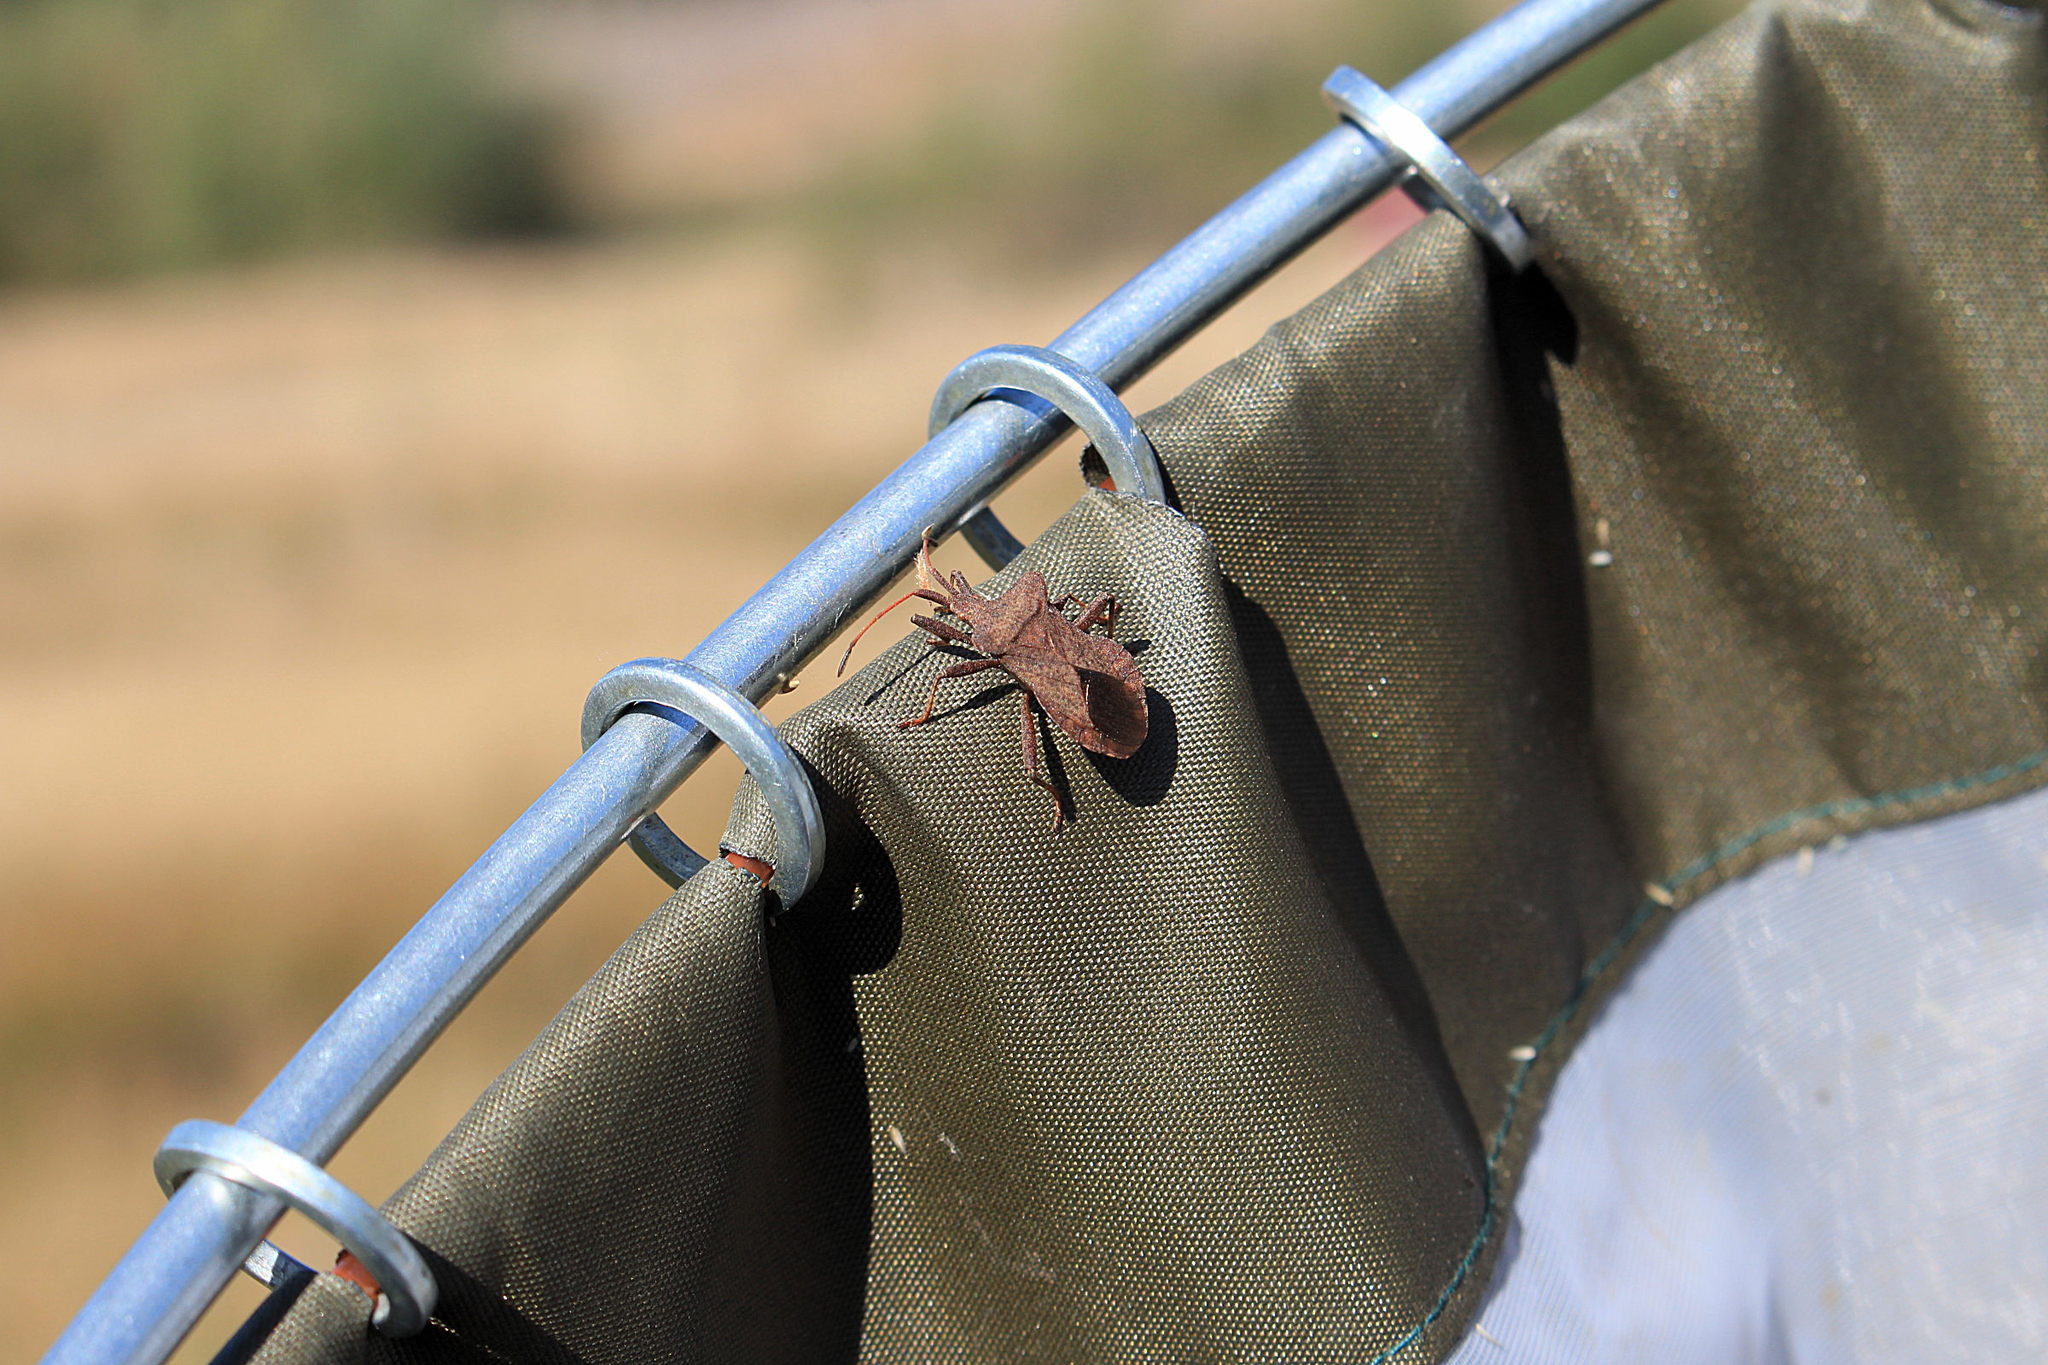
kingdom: Animalia
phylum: Arthropoda
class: Insecta
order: Hemiptera
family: Coreidae
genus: Coreus
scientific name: Coreus marginatus
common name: Dock bug
